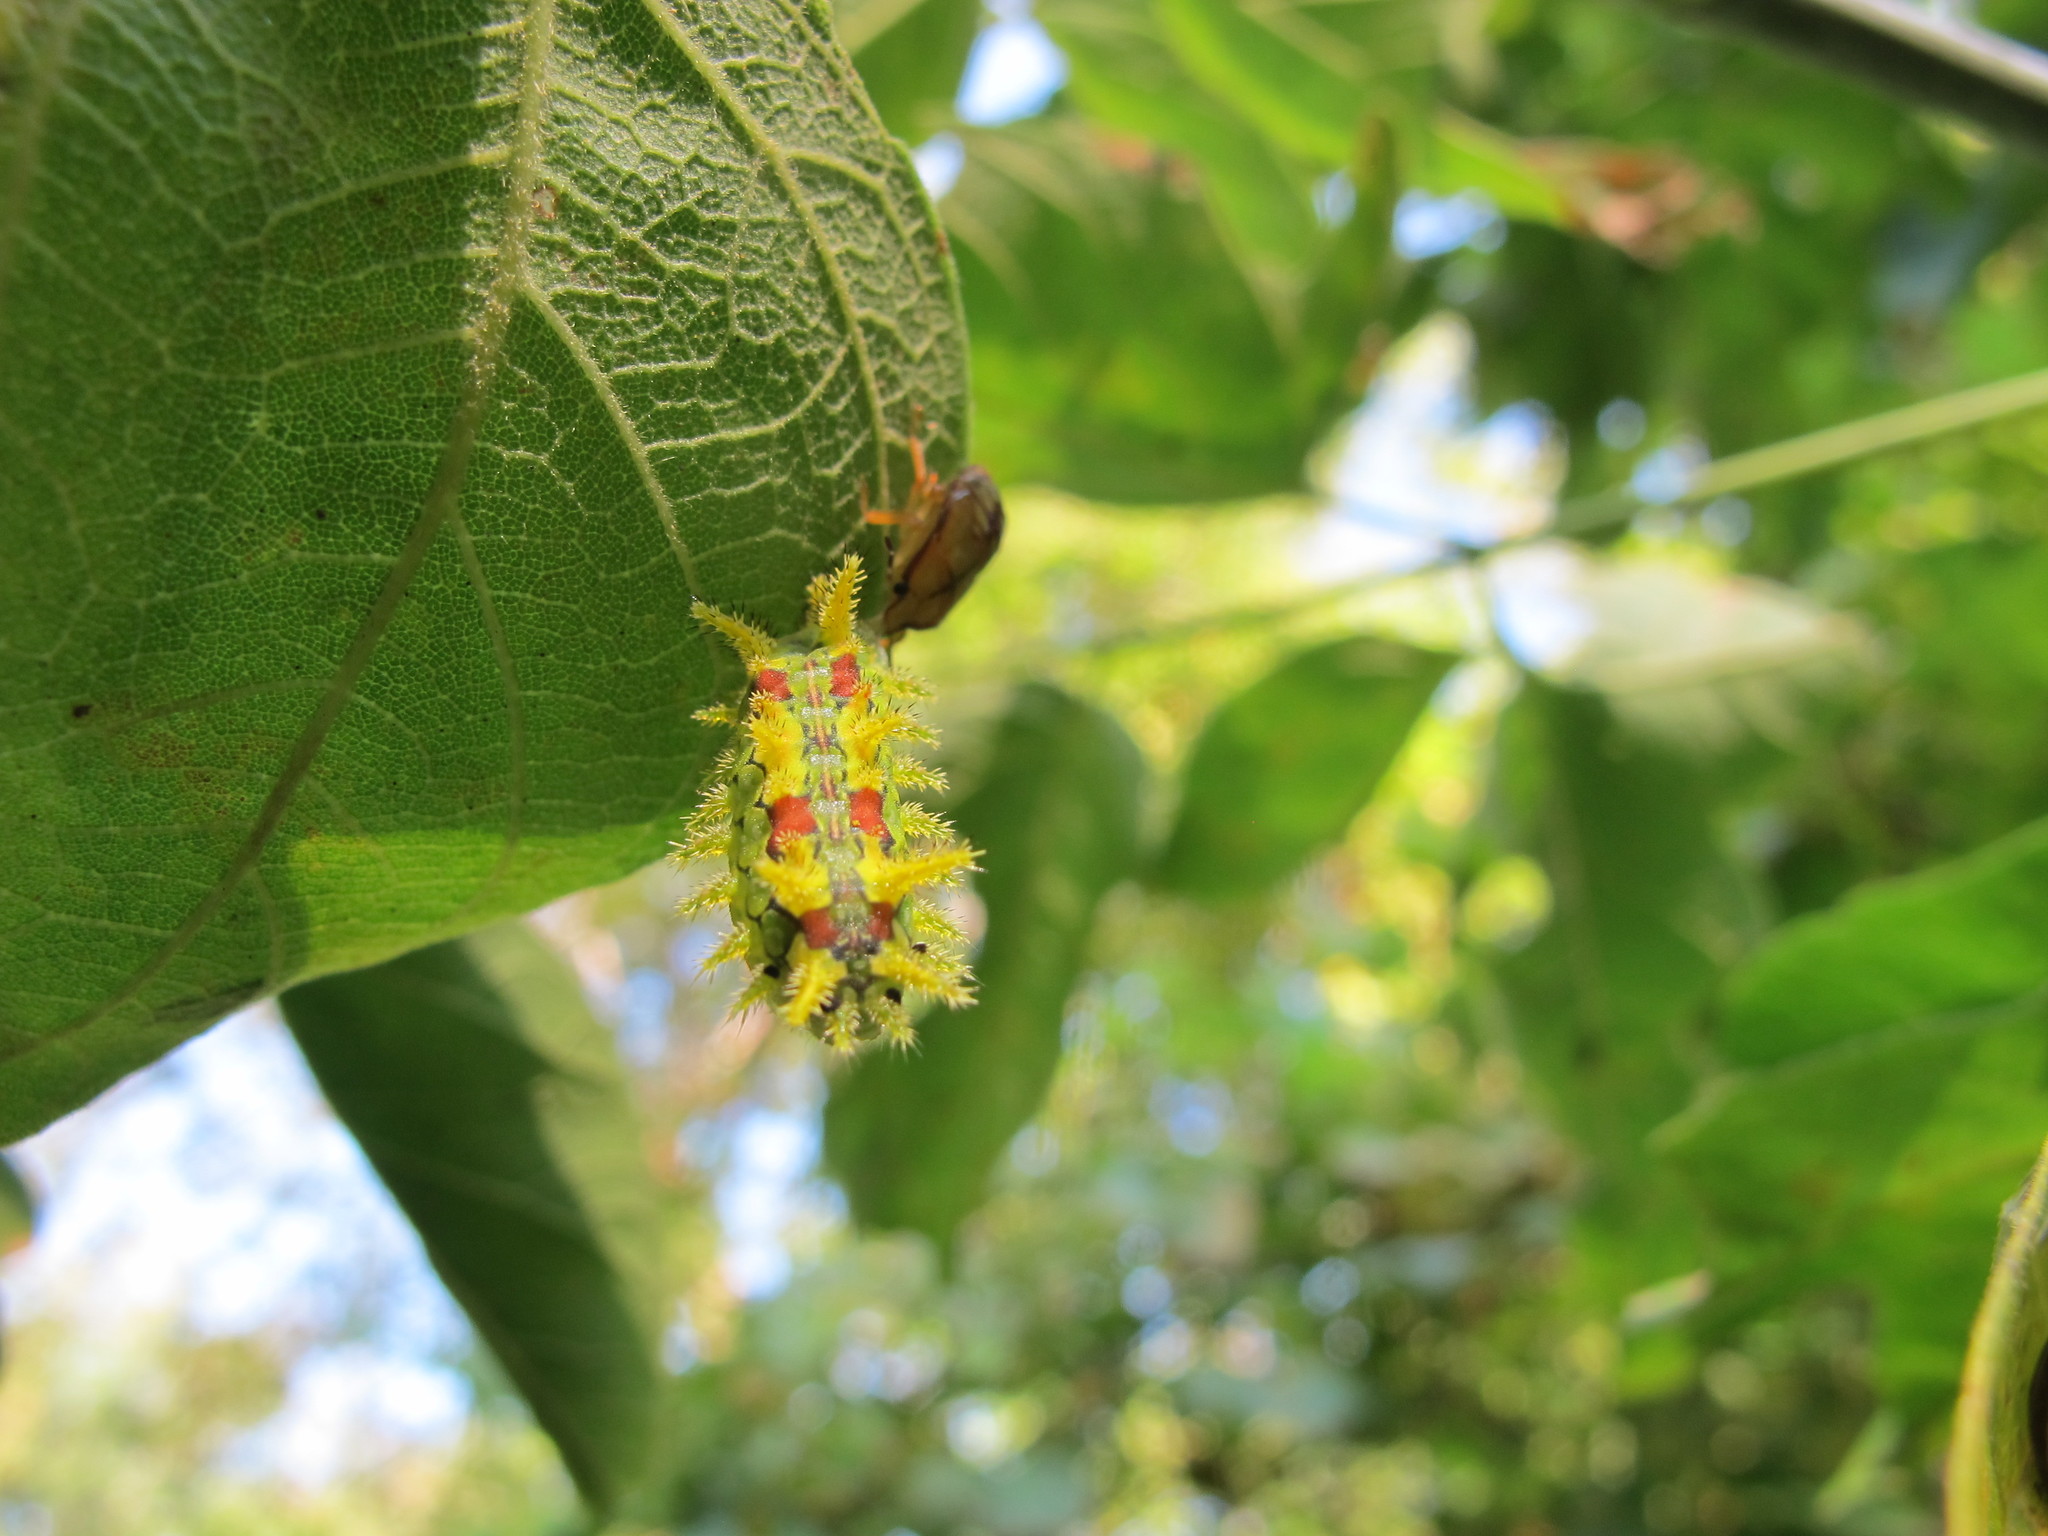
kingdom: Animalia
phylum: Arthropoda
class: Insecta
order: Lepidoptera
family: Limacodidae
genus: Euclea
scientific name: Euclea delphinii
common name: Spiny oak-slug moth
